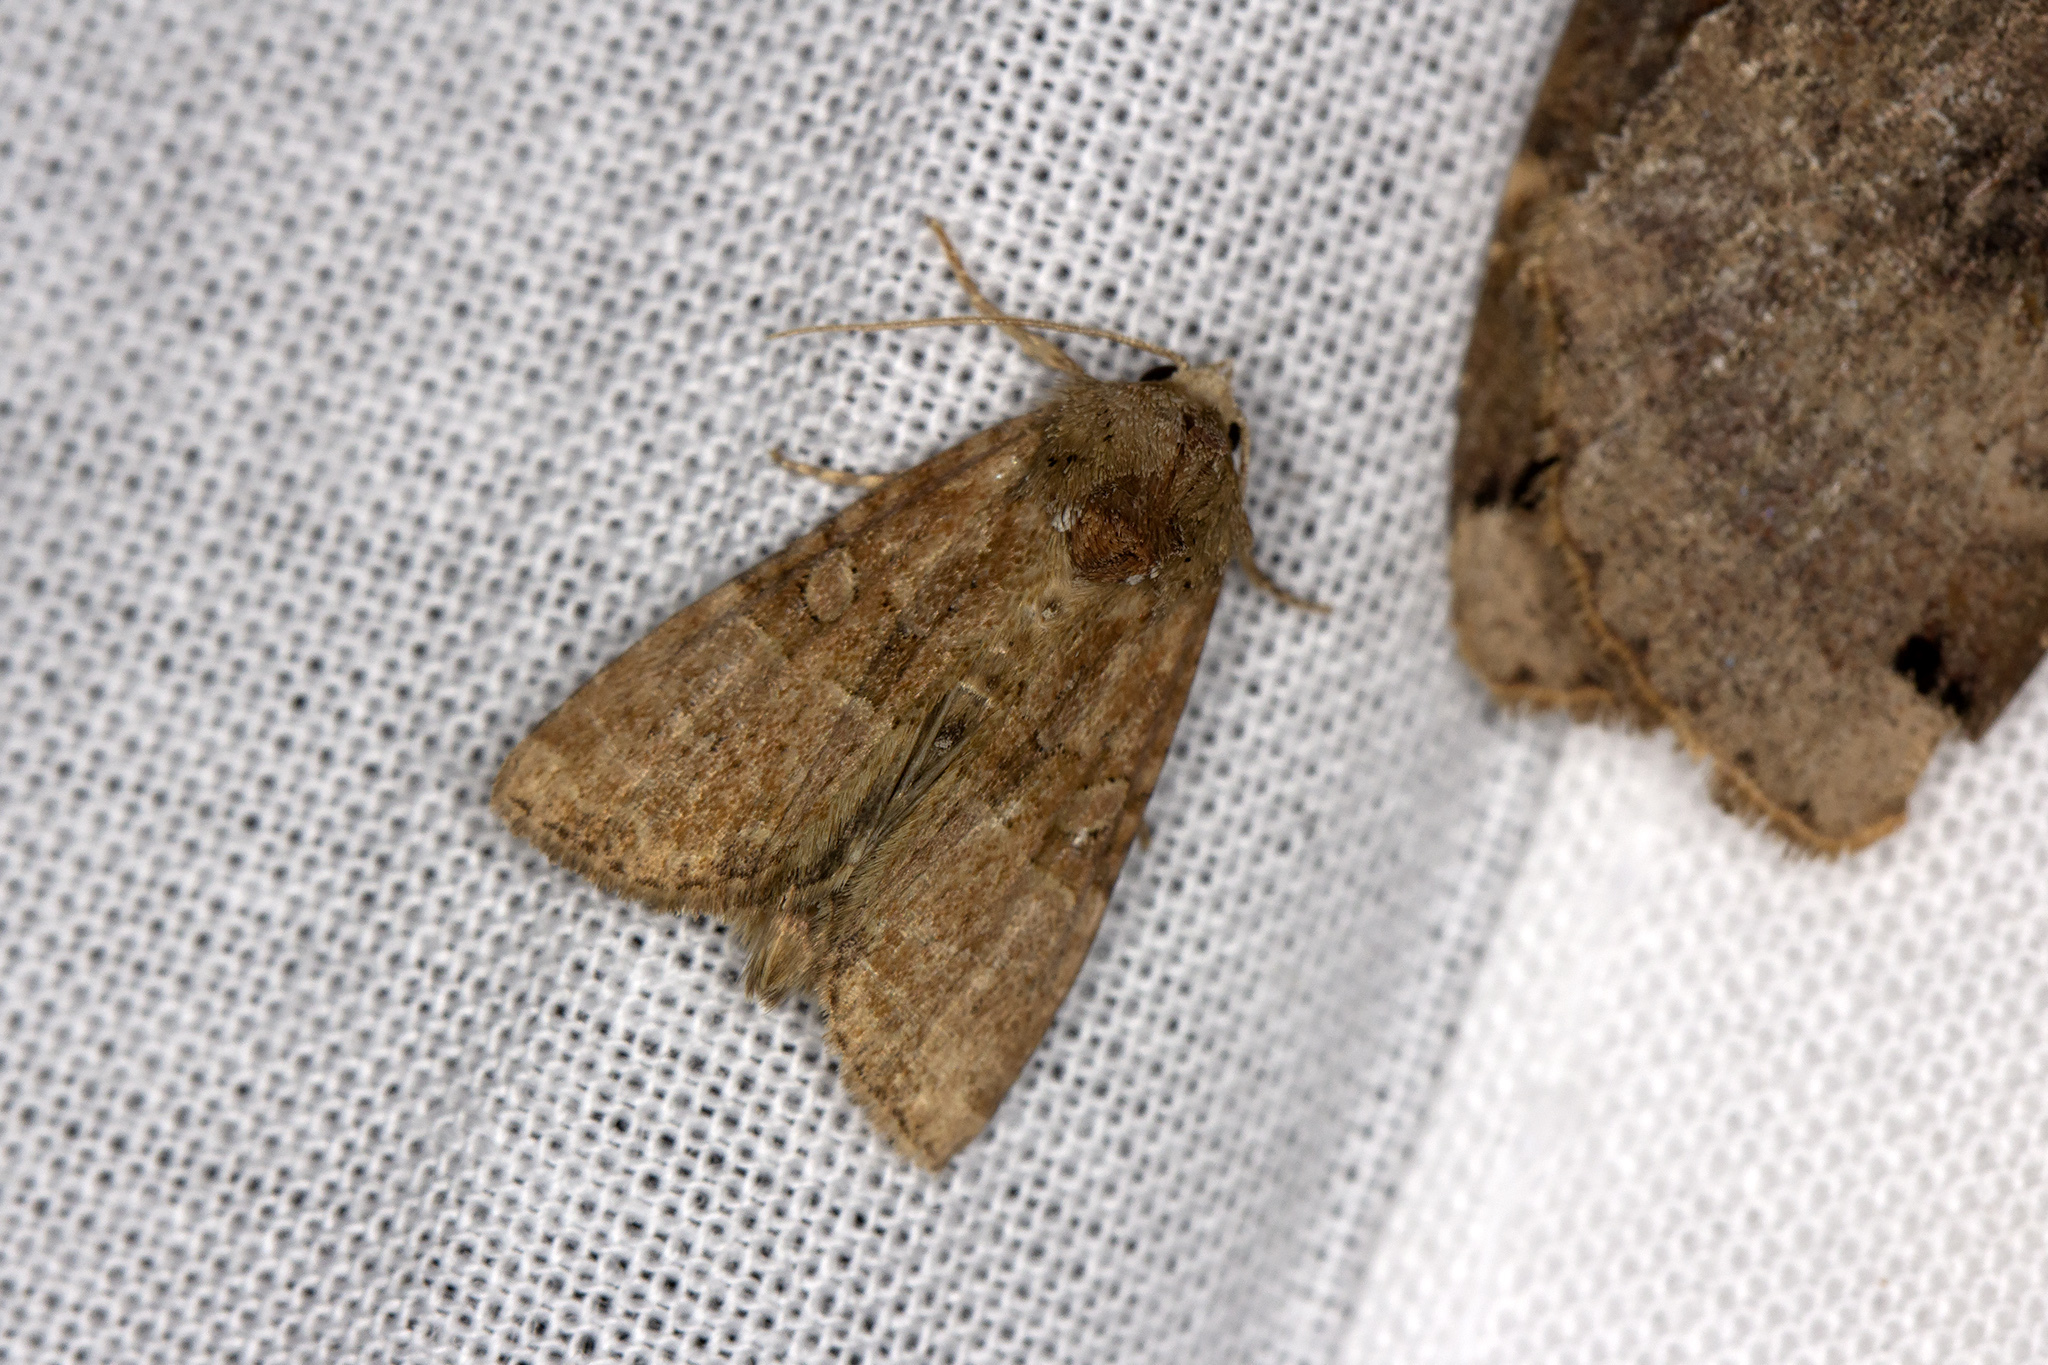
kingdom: Animalia
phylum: Arthropoda
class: Insecta
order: Lepidoptera
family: Noctuidae
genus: Mesoligia
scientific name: Mesoligia furuncula
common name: Cloaked minor
